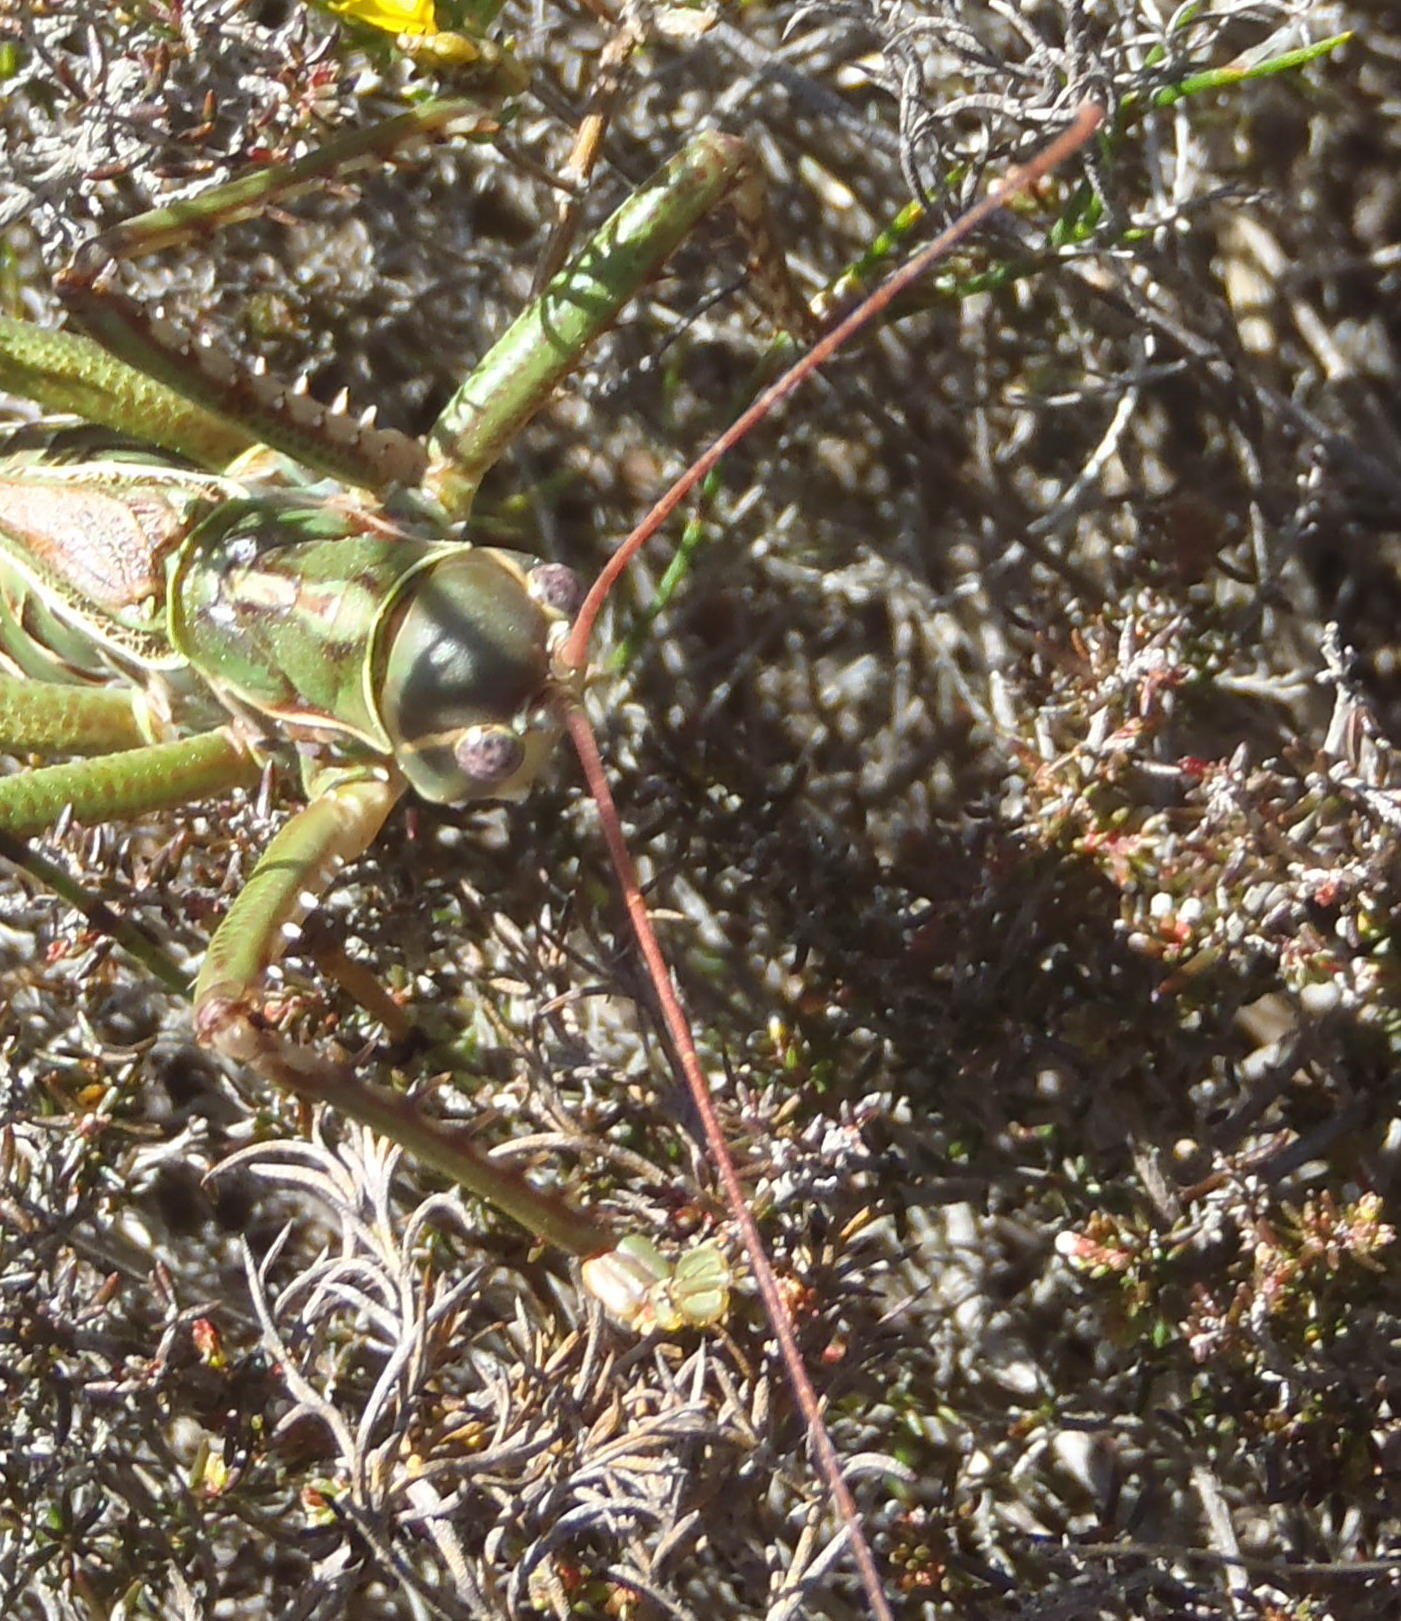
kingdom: Animalia
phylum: Arthropoda
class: Insecta
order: Orthoptera
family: Tettigoniidae
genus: Clonia
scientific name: Clonia melanoptera
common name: Giant black-winged clonia
